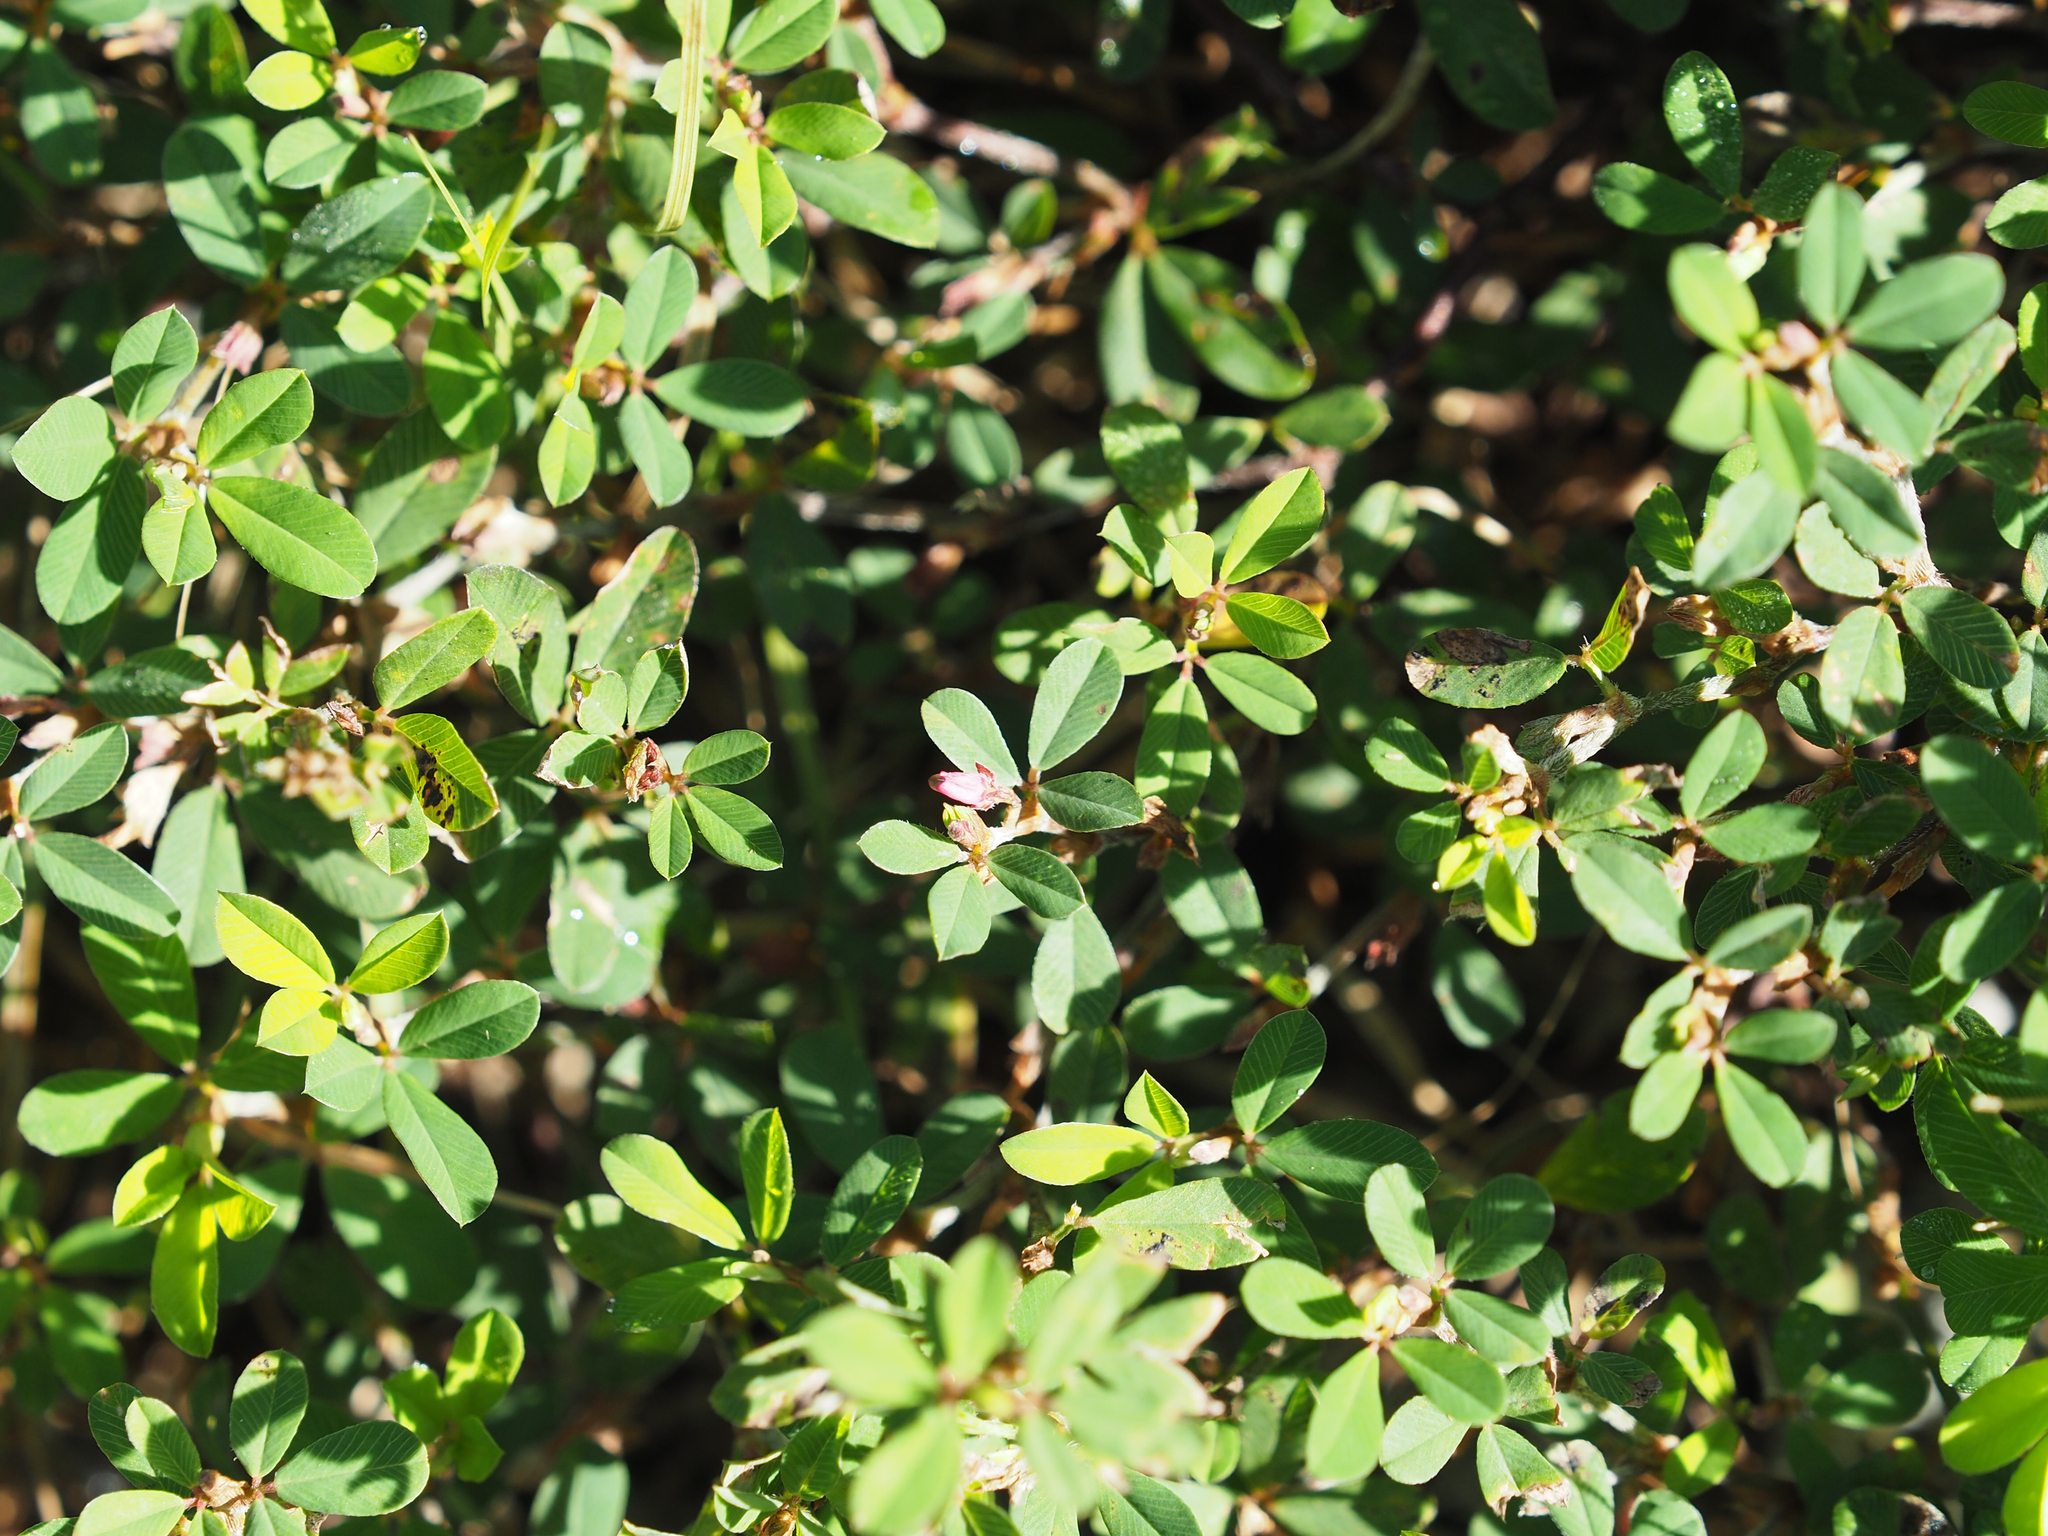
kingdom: Plantae
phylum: Tracheophyta
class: Magnoliopsida
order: Fabales
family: Fabaceae
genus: Kummerowia
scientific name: Kummerowia striata
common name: Japanese clover
